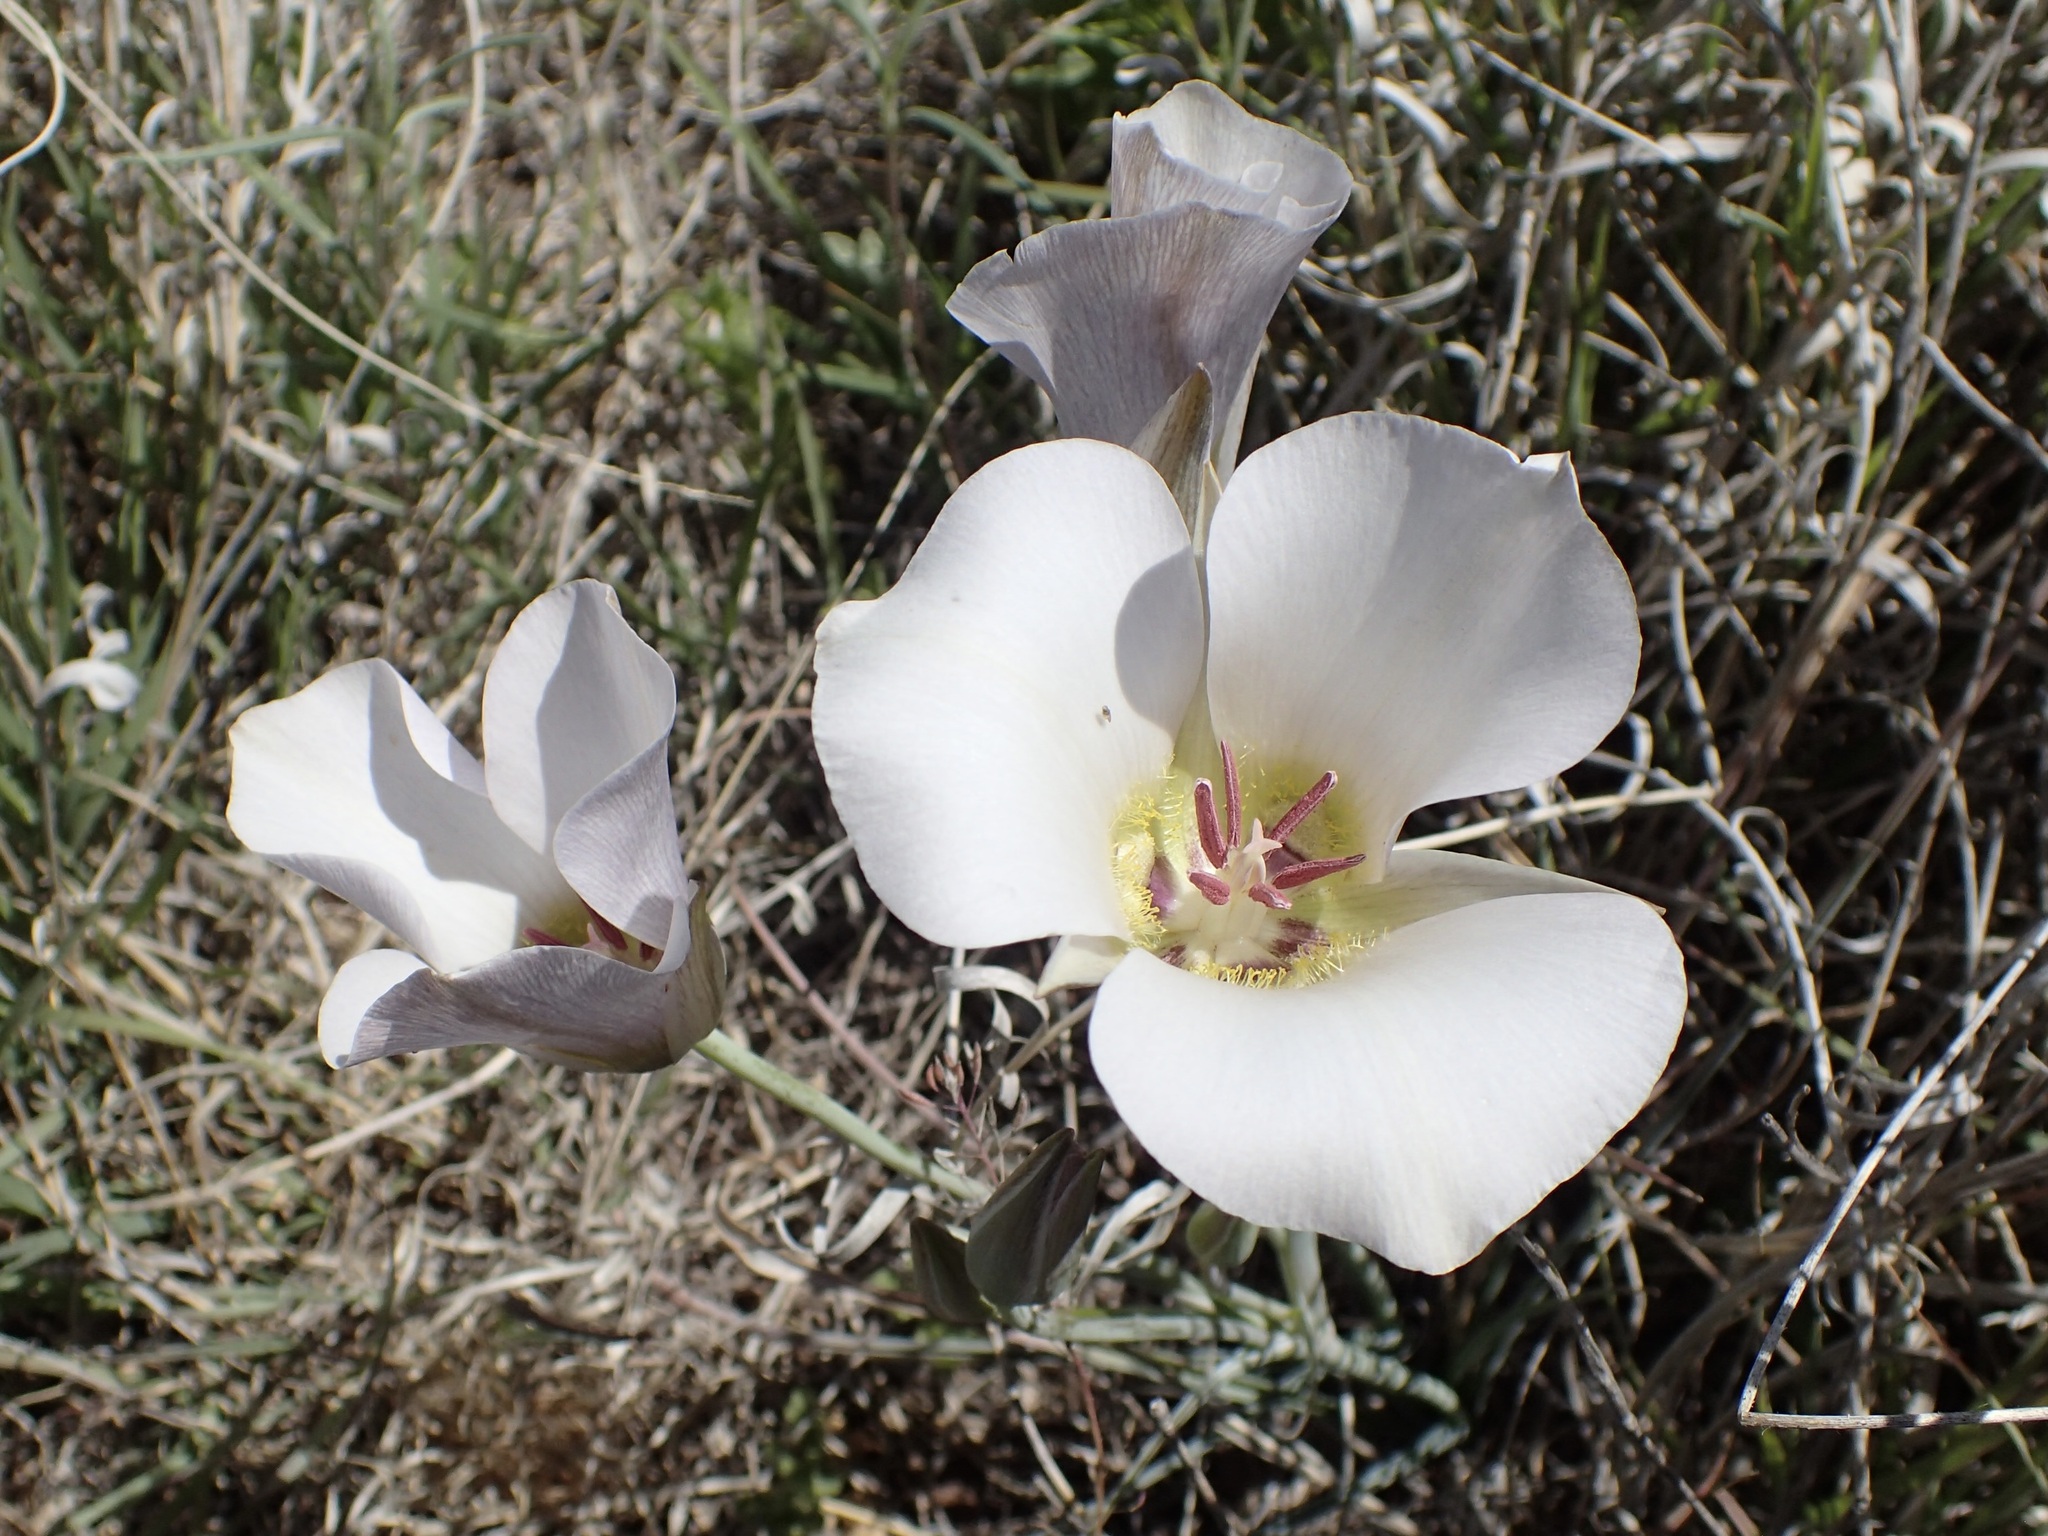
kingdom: Plantae
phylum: Tracheophyta
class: Liliopsida
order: Liliales
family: Liliaceae
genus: Calochortus
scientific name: Calochortus ambiguus
